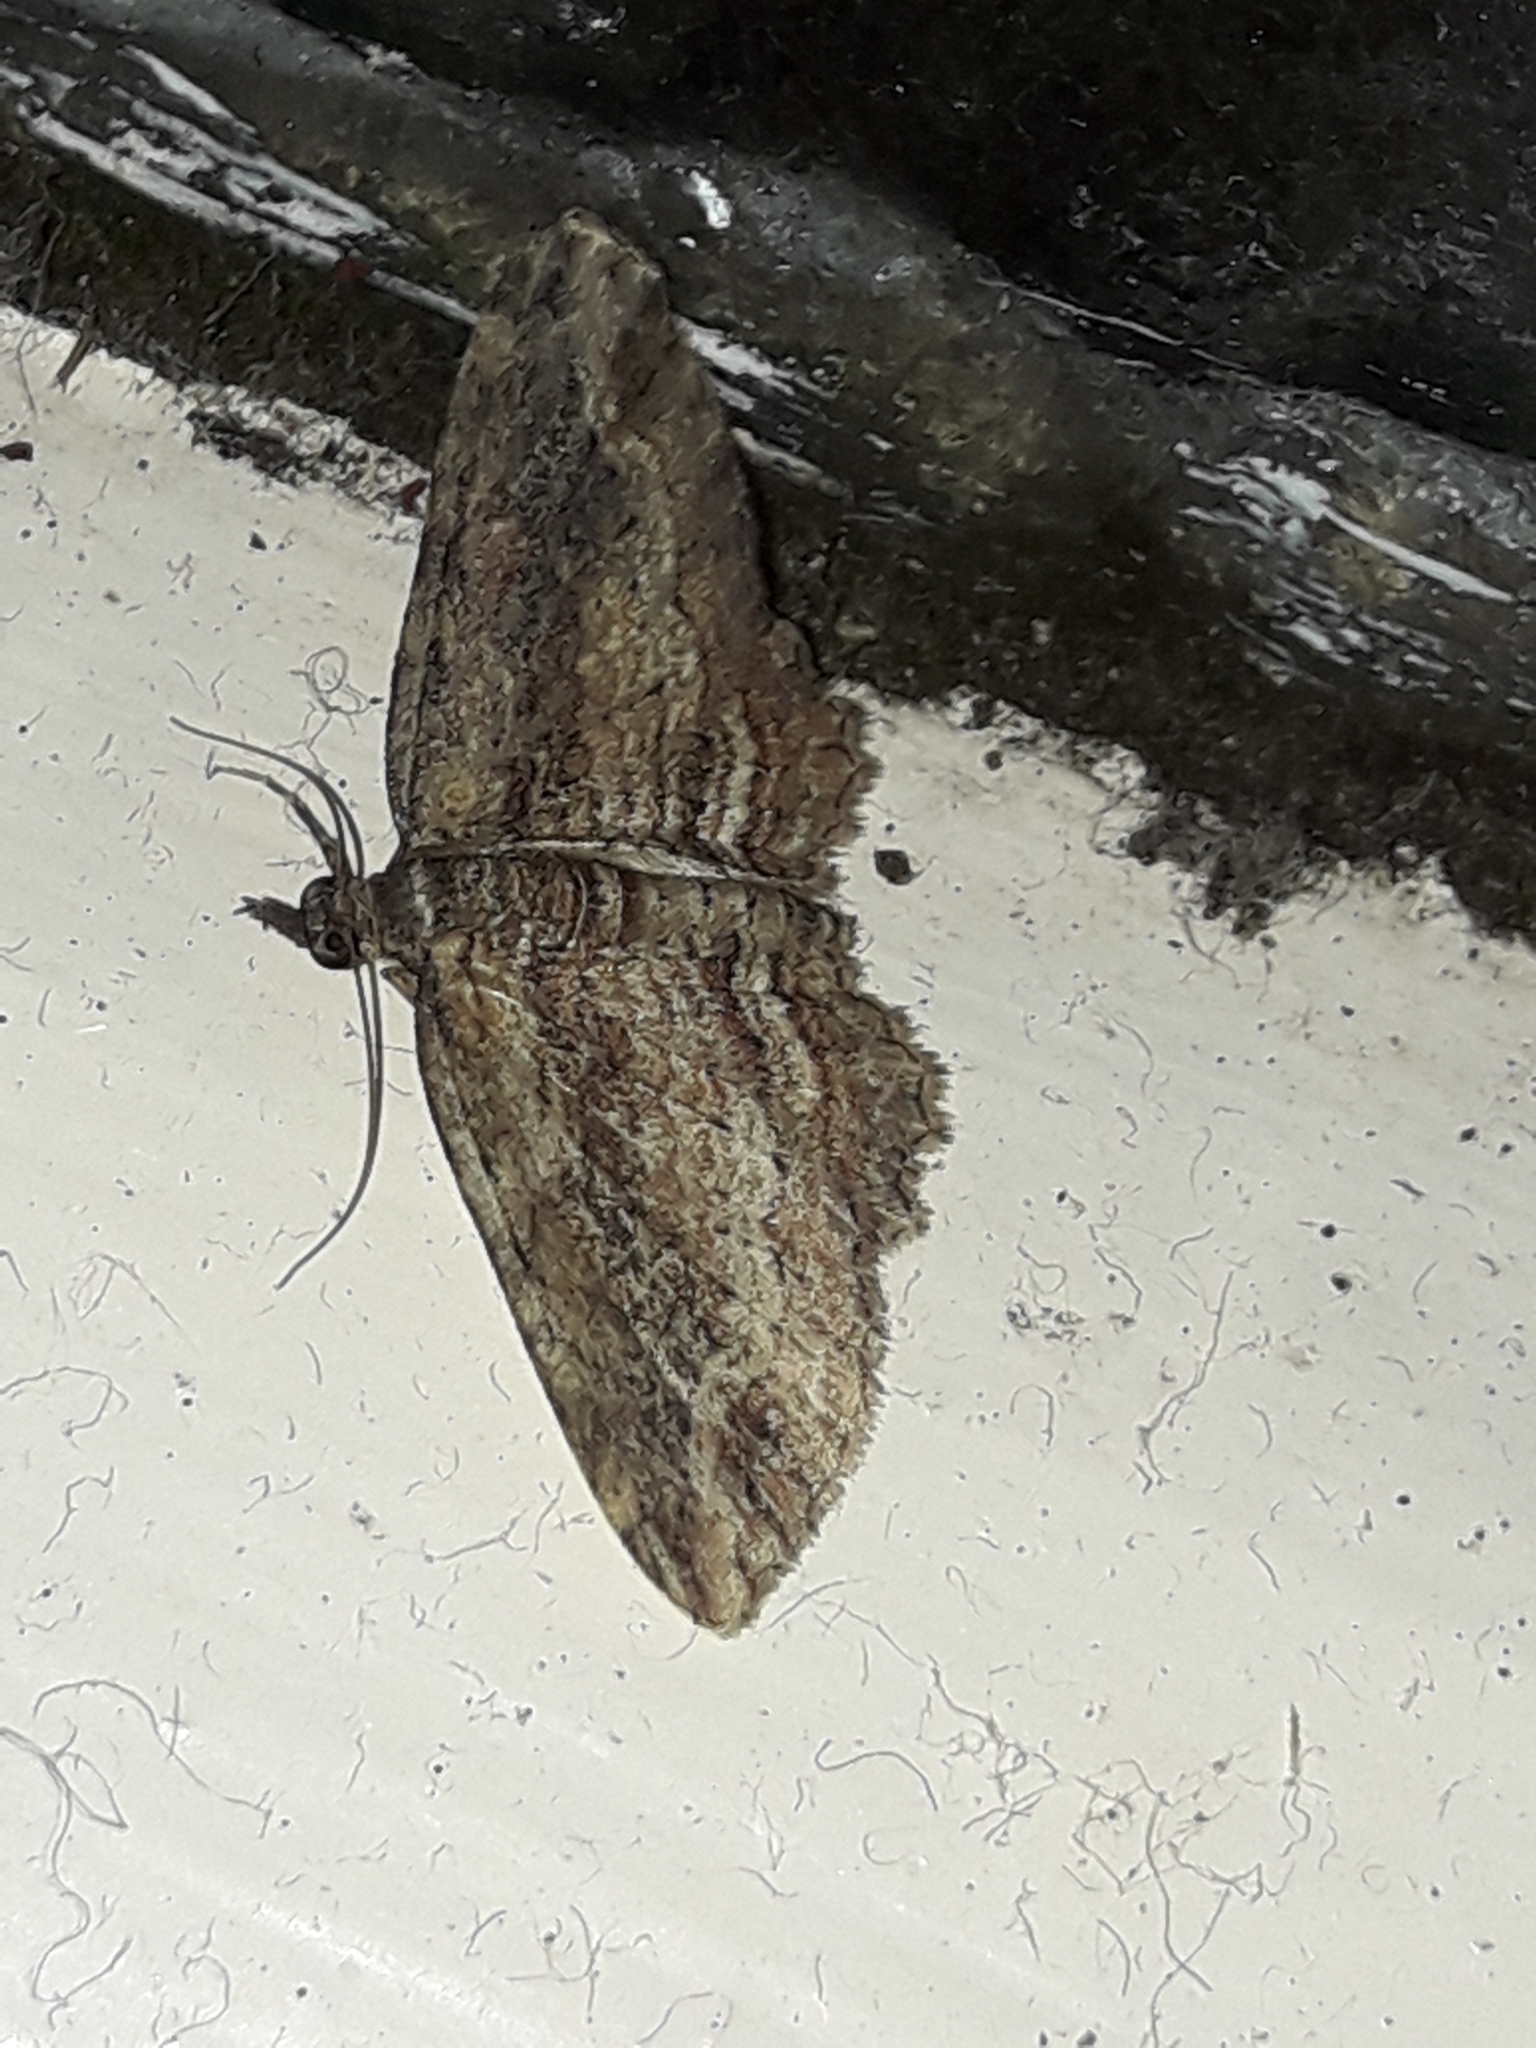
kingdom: Animalia
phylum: Arthropoda
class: Insecta
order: Lepidoptera
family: Geometridae
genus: Chloroclystis
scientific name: Chloroclystis filata
